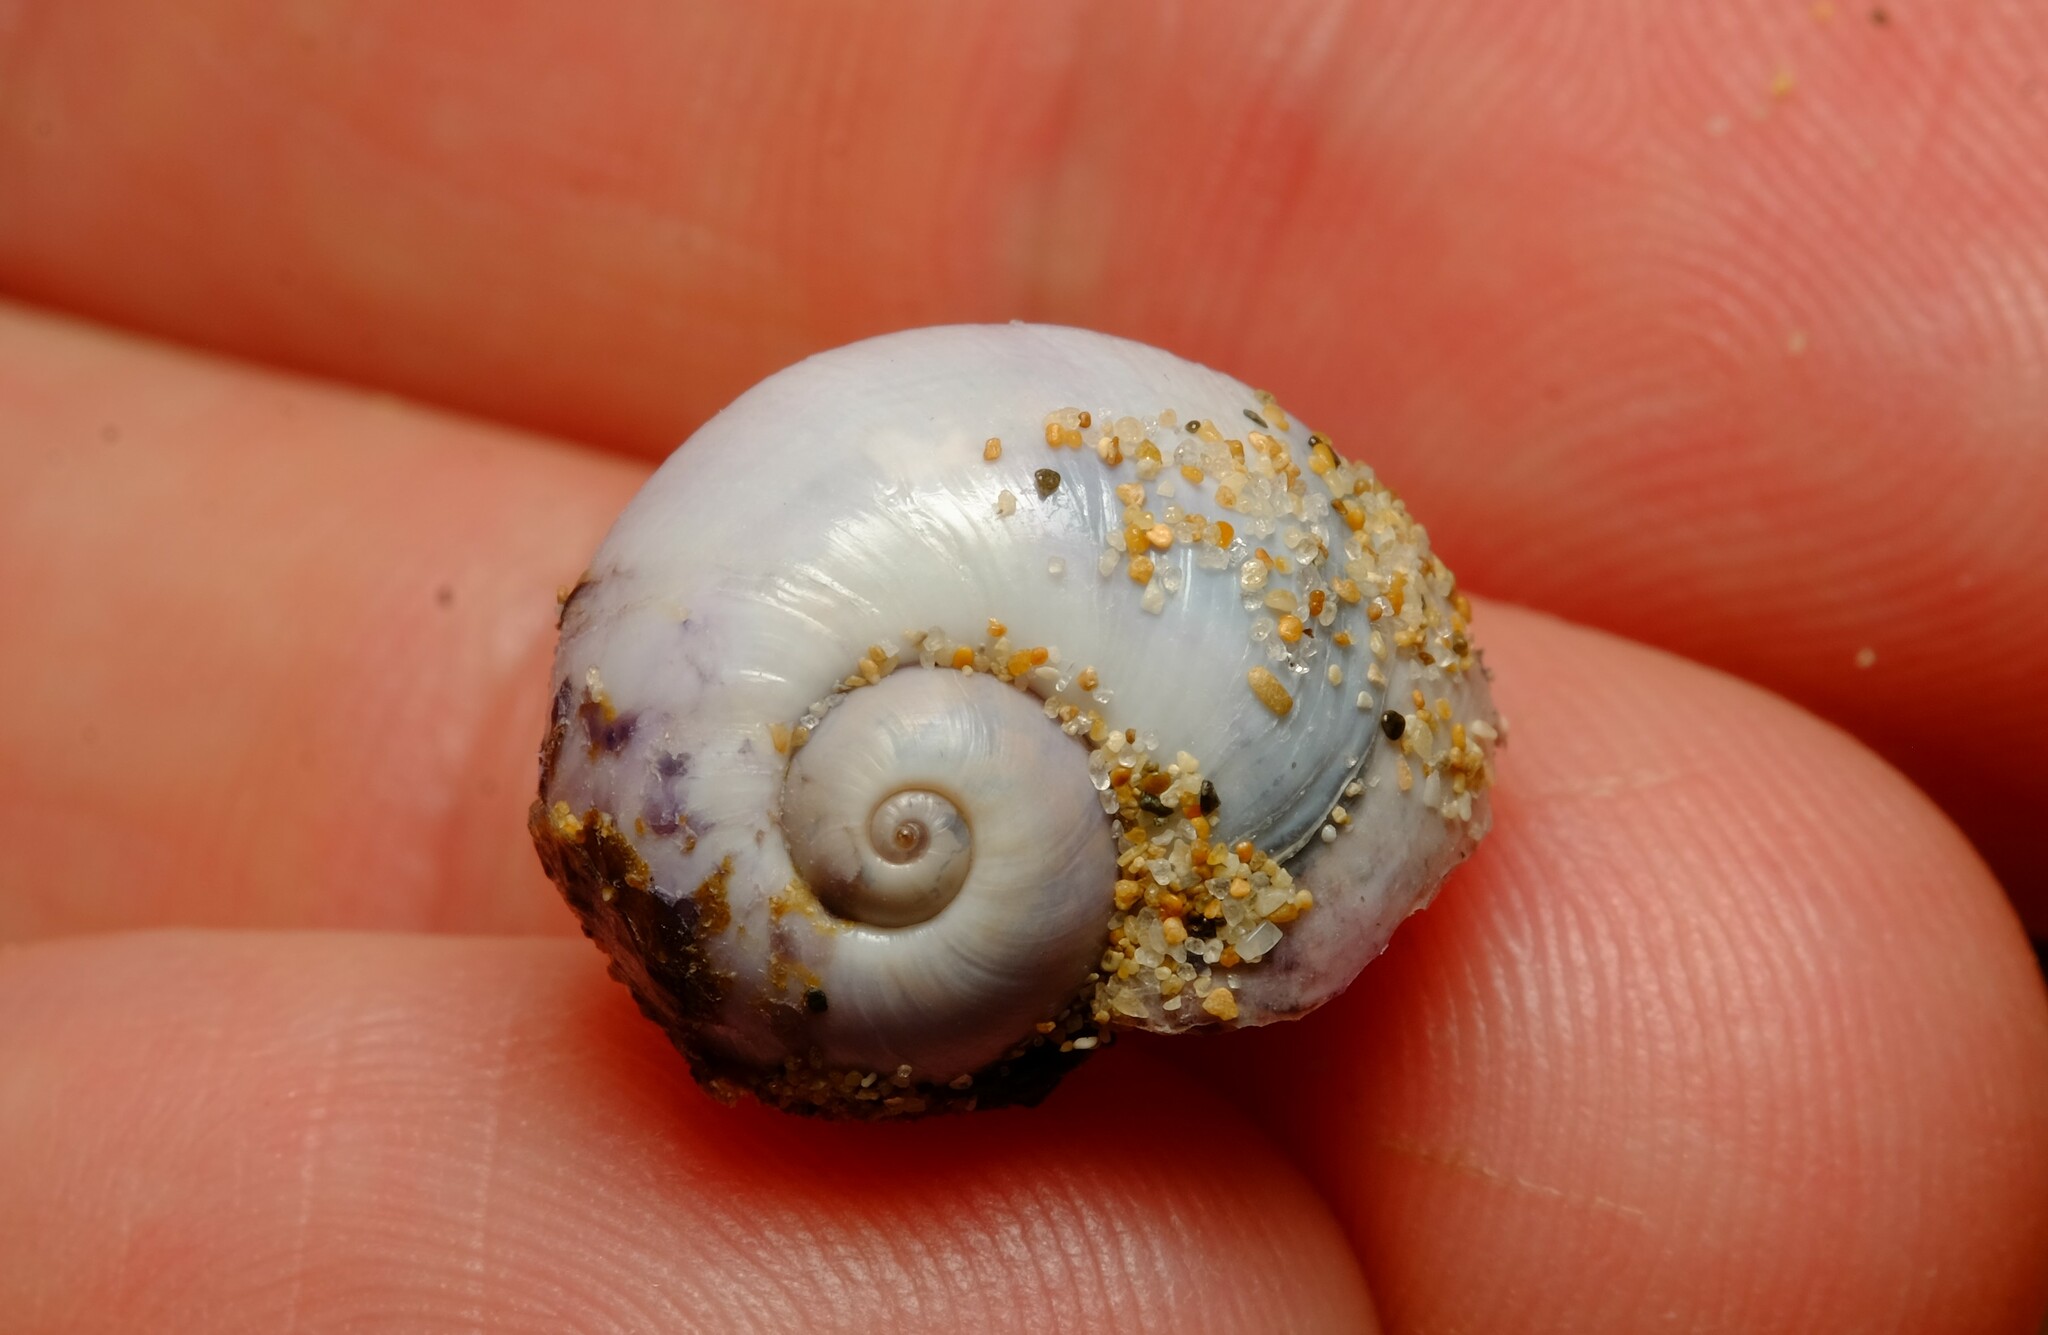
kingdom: Animalia
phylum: Mollusca
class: Gastropoda
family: Epitoniidae
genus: Janthina
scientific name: Janthina pallida
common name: Pale janthina
